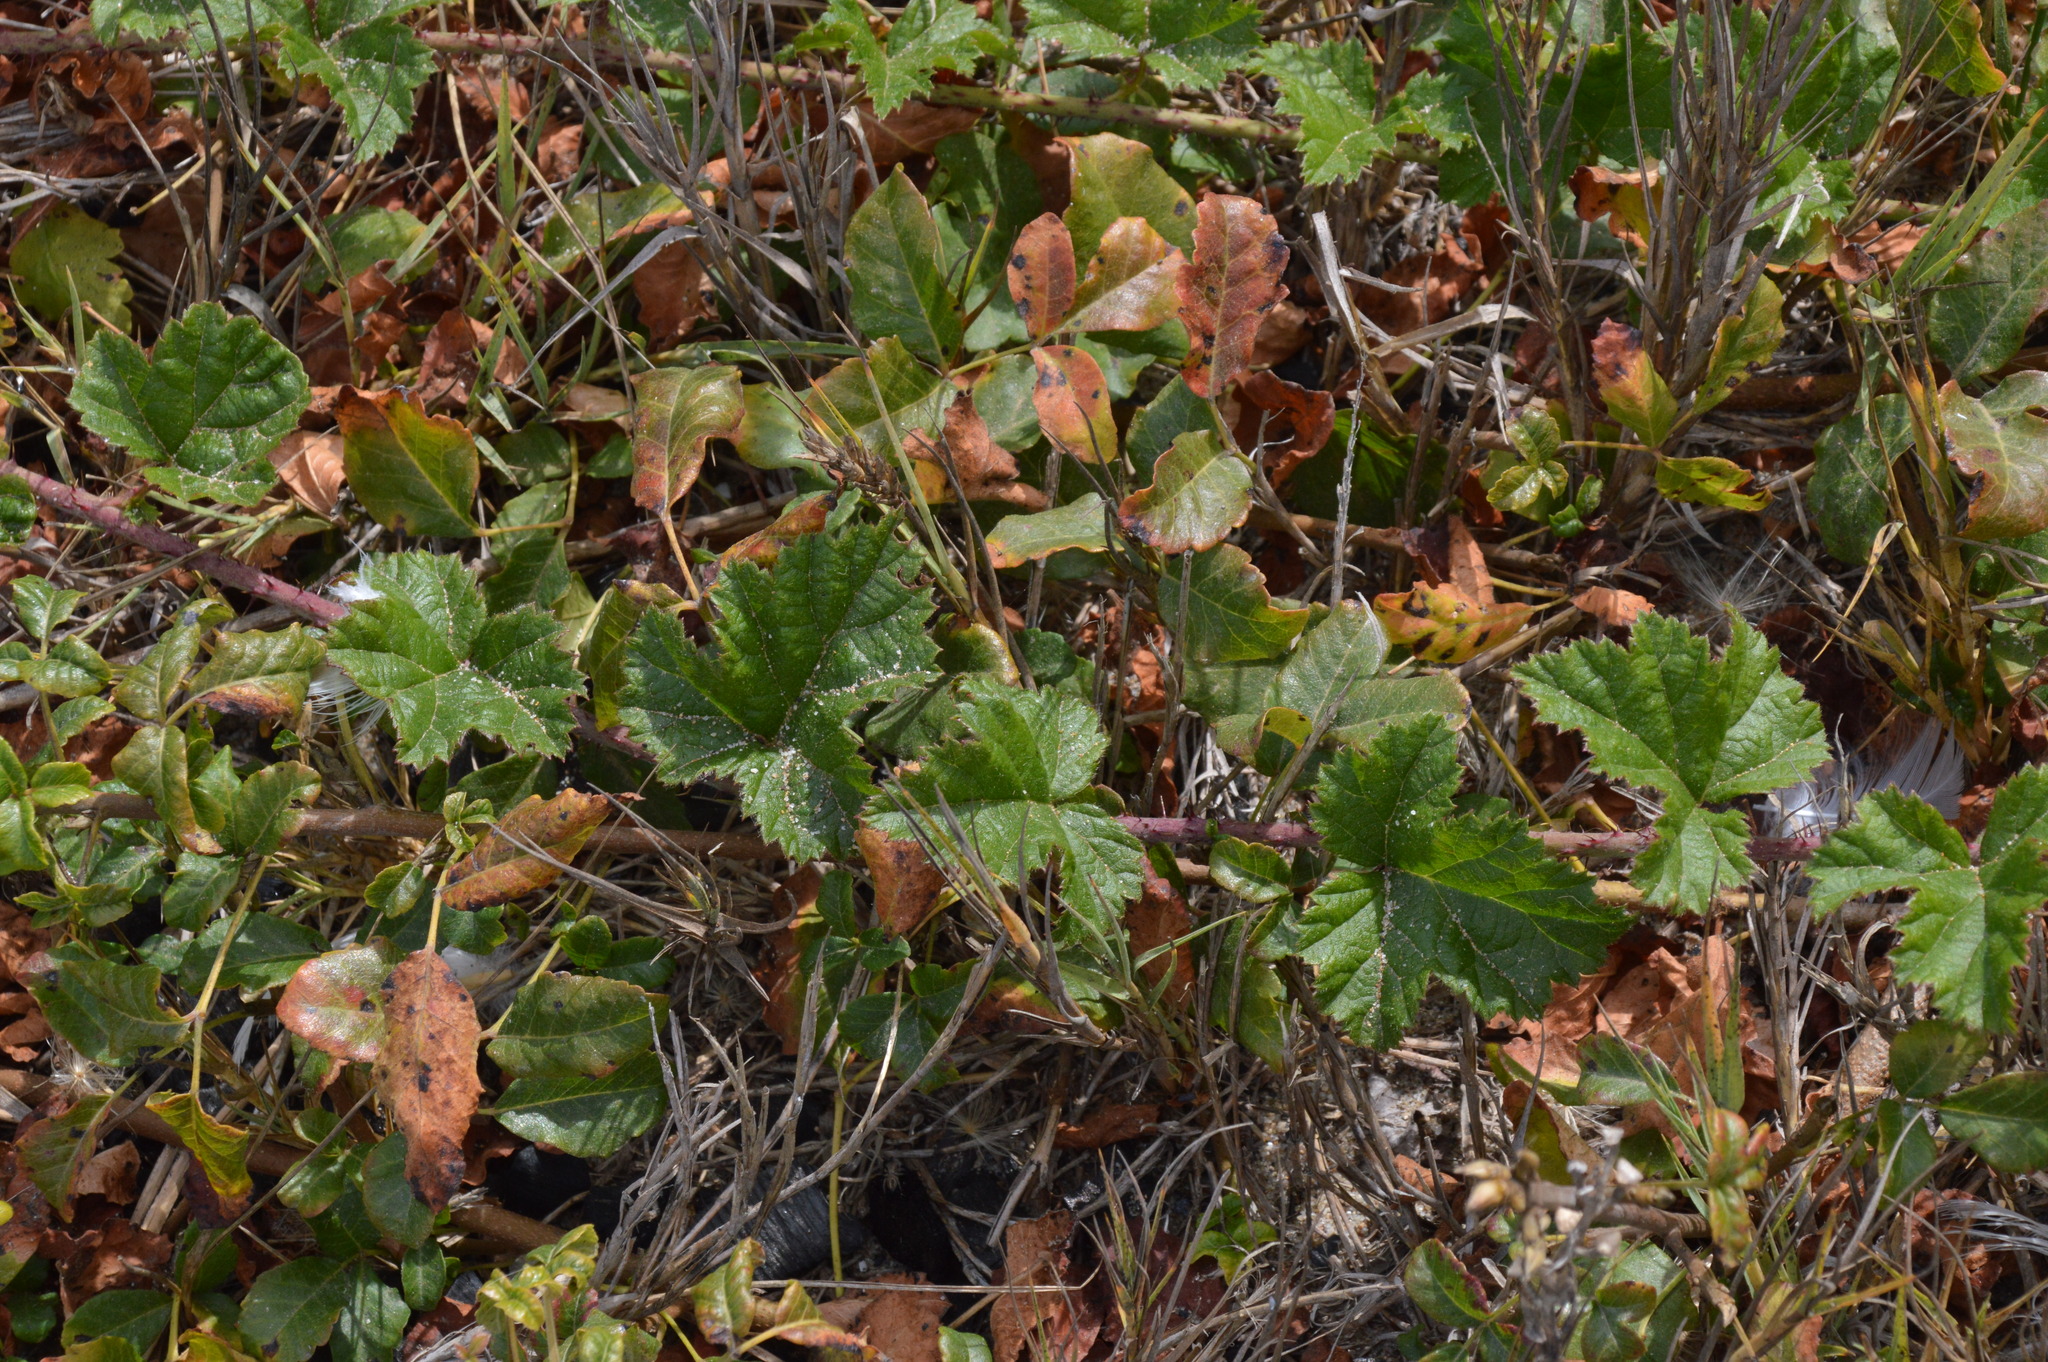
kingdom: Plantae
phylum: Tracheophyta
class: Magnoliopsida
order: Rosales
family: Rosaceae
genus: Rubus
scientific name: Rubus ursinus
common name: Pacific blackberry
